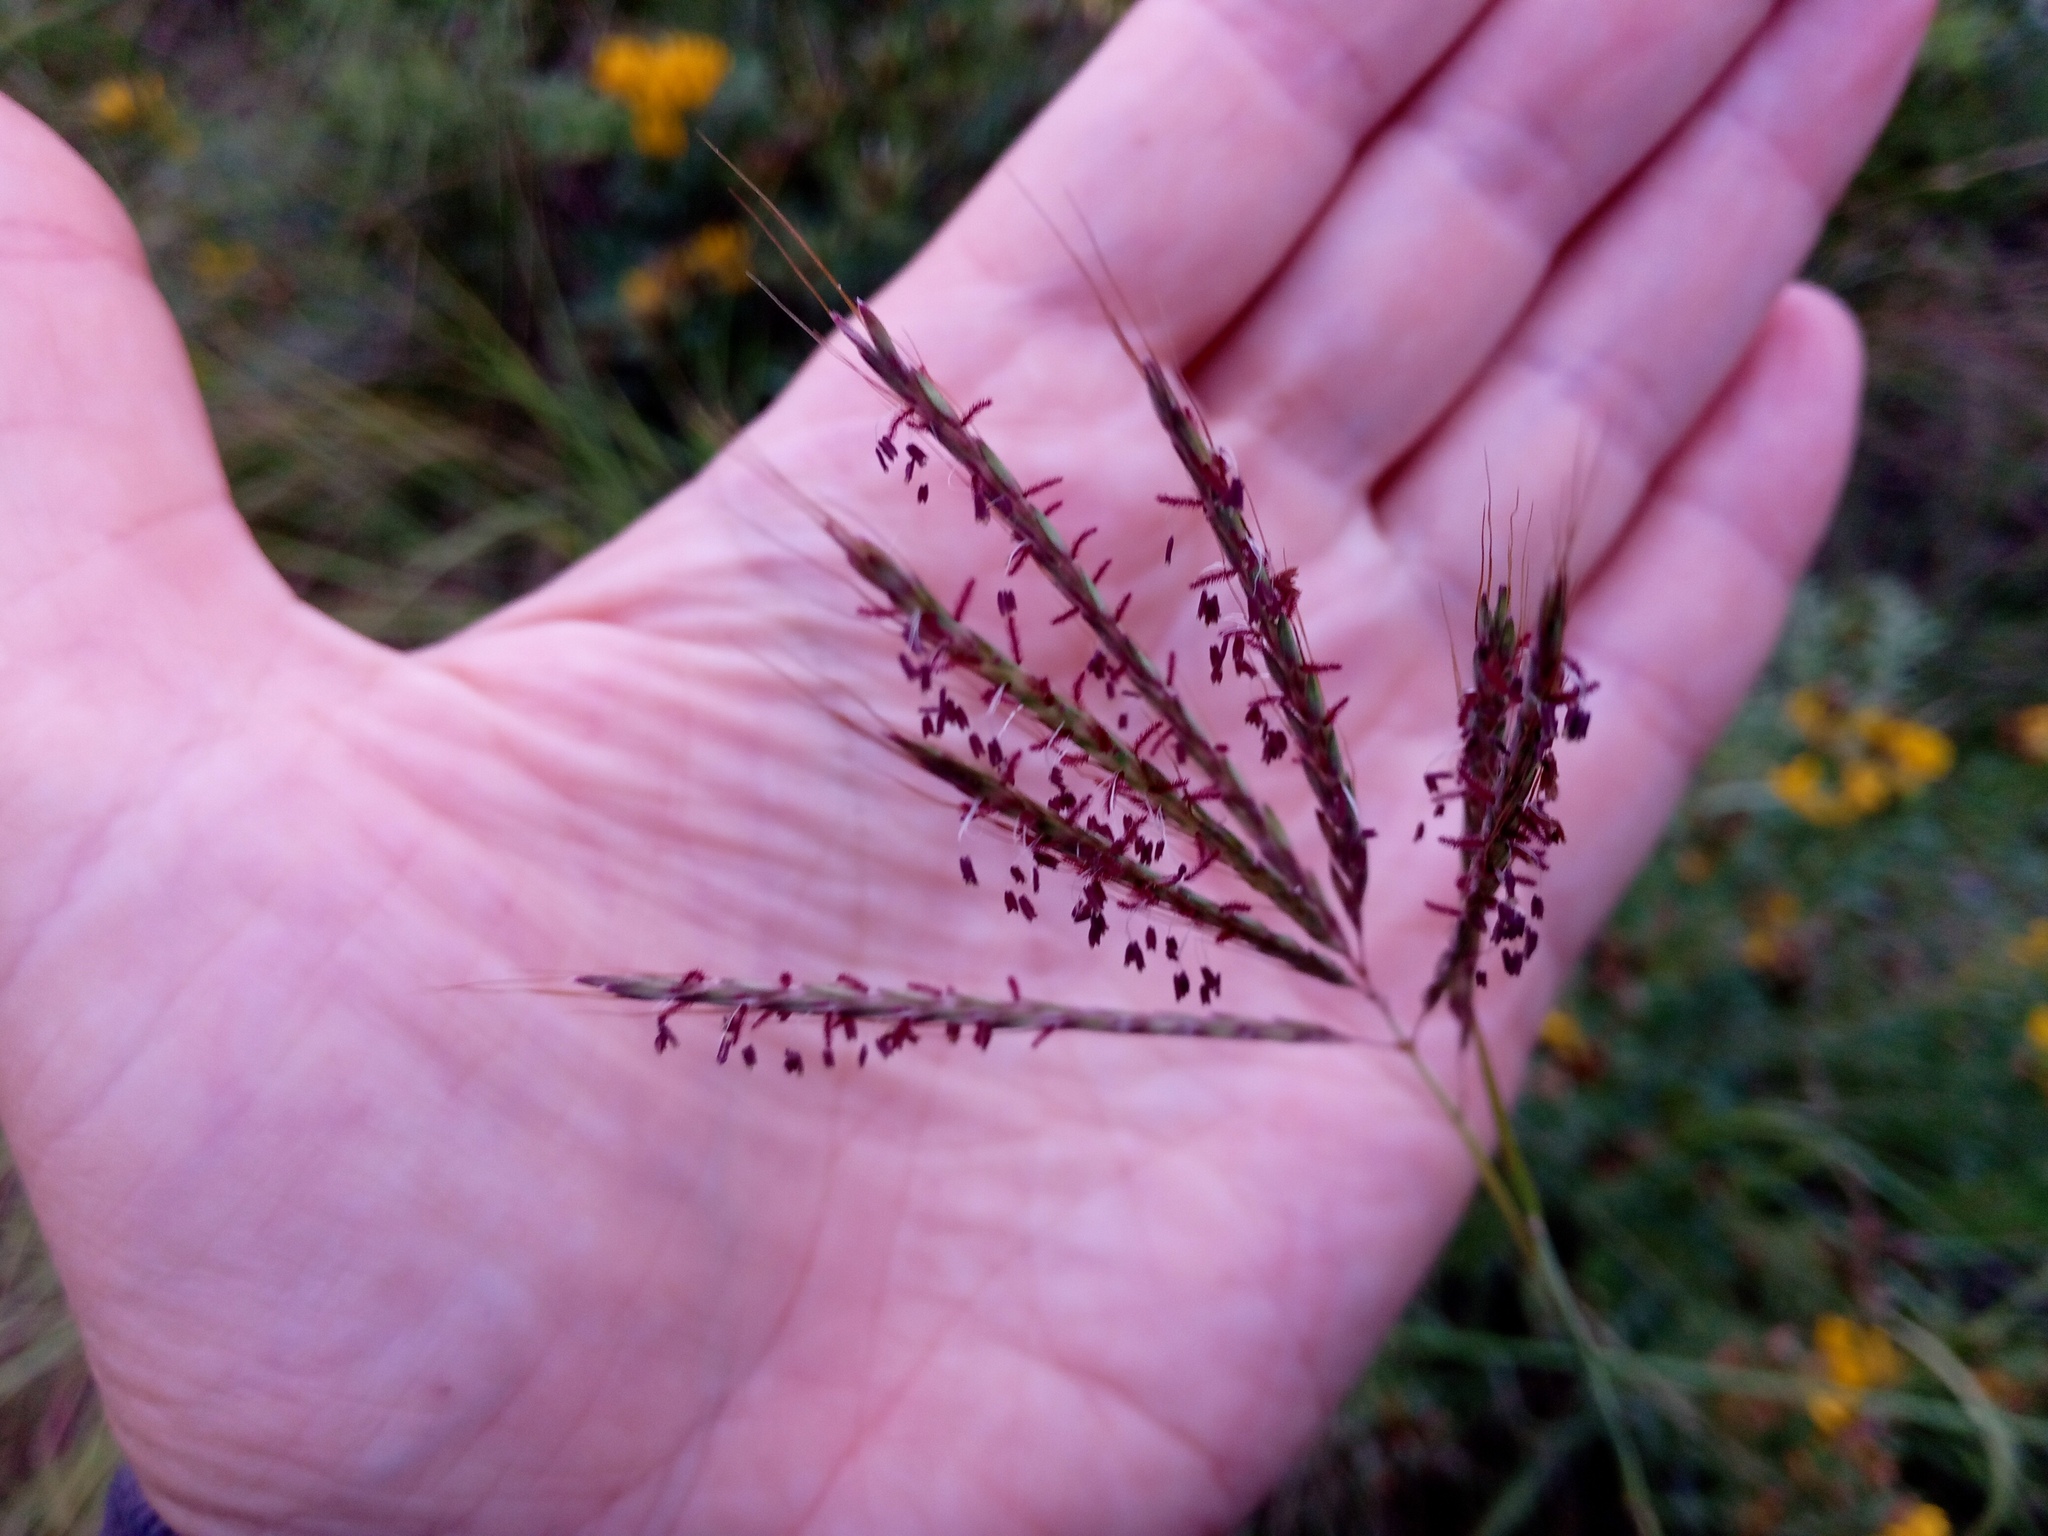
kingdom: Plantae
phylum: Tracheophyta
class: Liliopsida
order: Poales
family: Poaceae
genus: Bothriochloa
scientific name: Bothriochloa ischaemum
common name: Yellow bluestem
